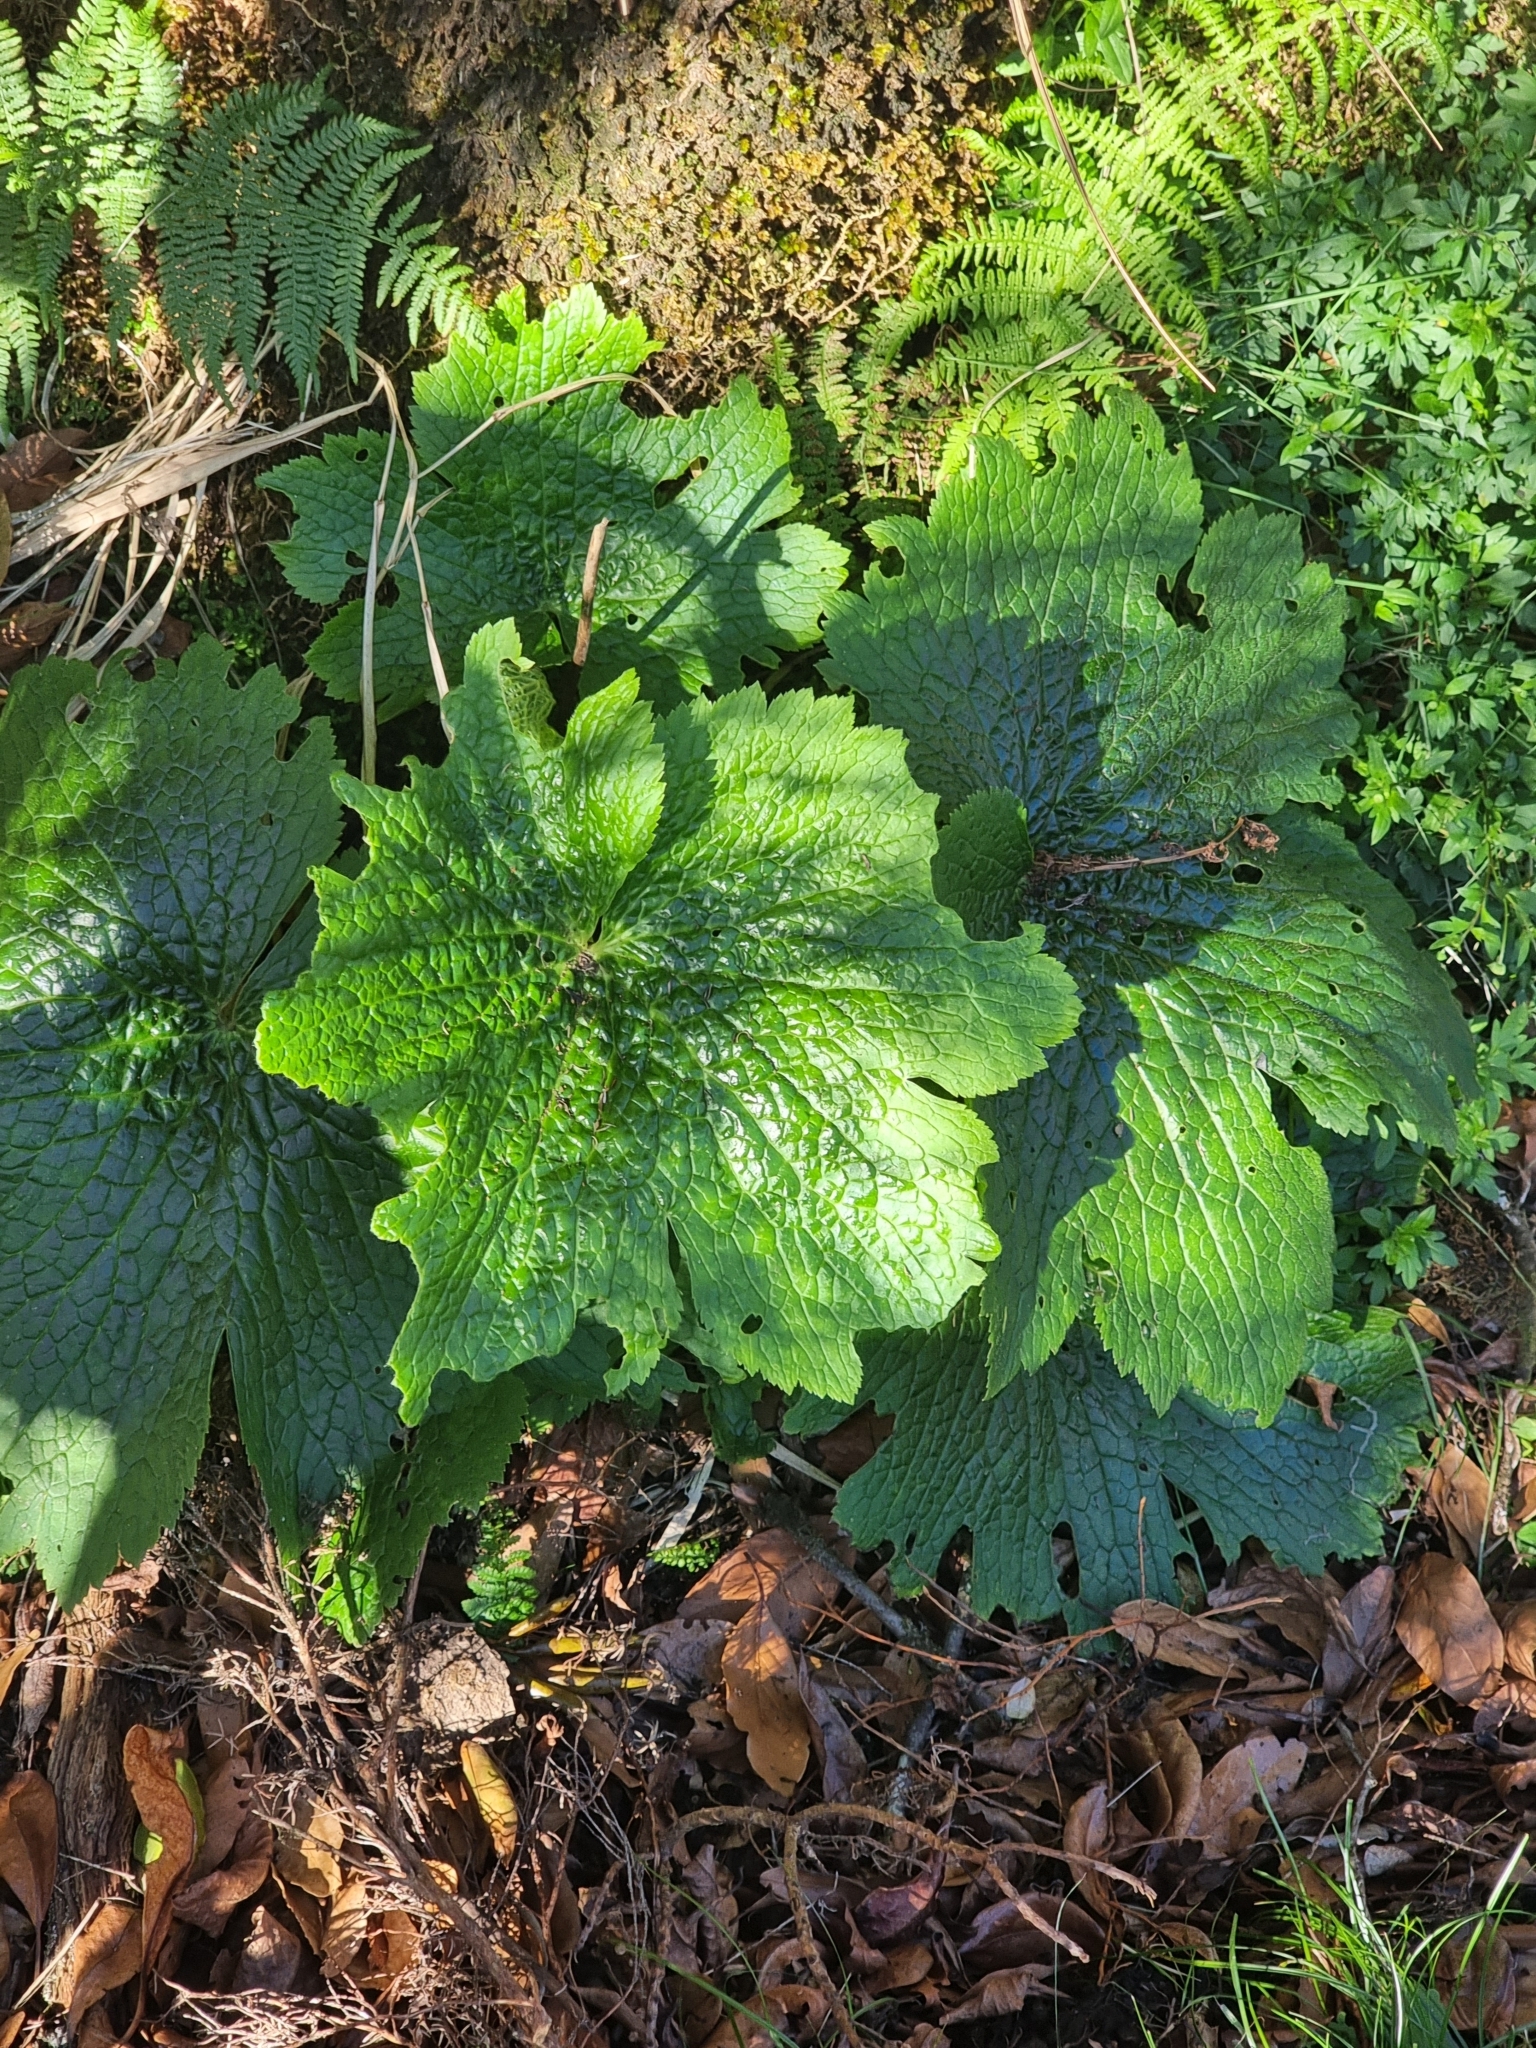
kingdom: Plantae
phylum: Tracheophyta
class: Magnoliopsida
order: Ranunculales
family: Ranunculaceae
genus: Ranunculus
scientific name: Ranunculus cortusifolius
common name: Azores buttercup
